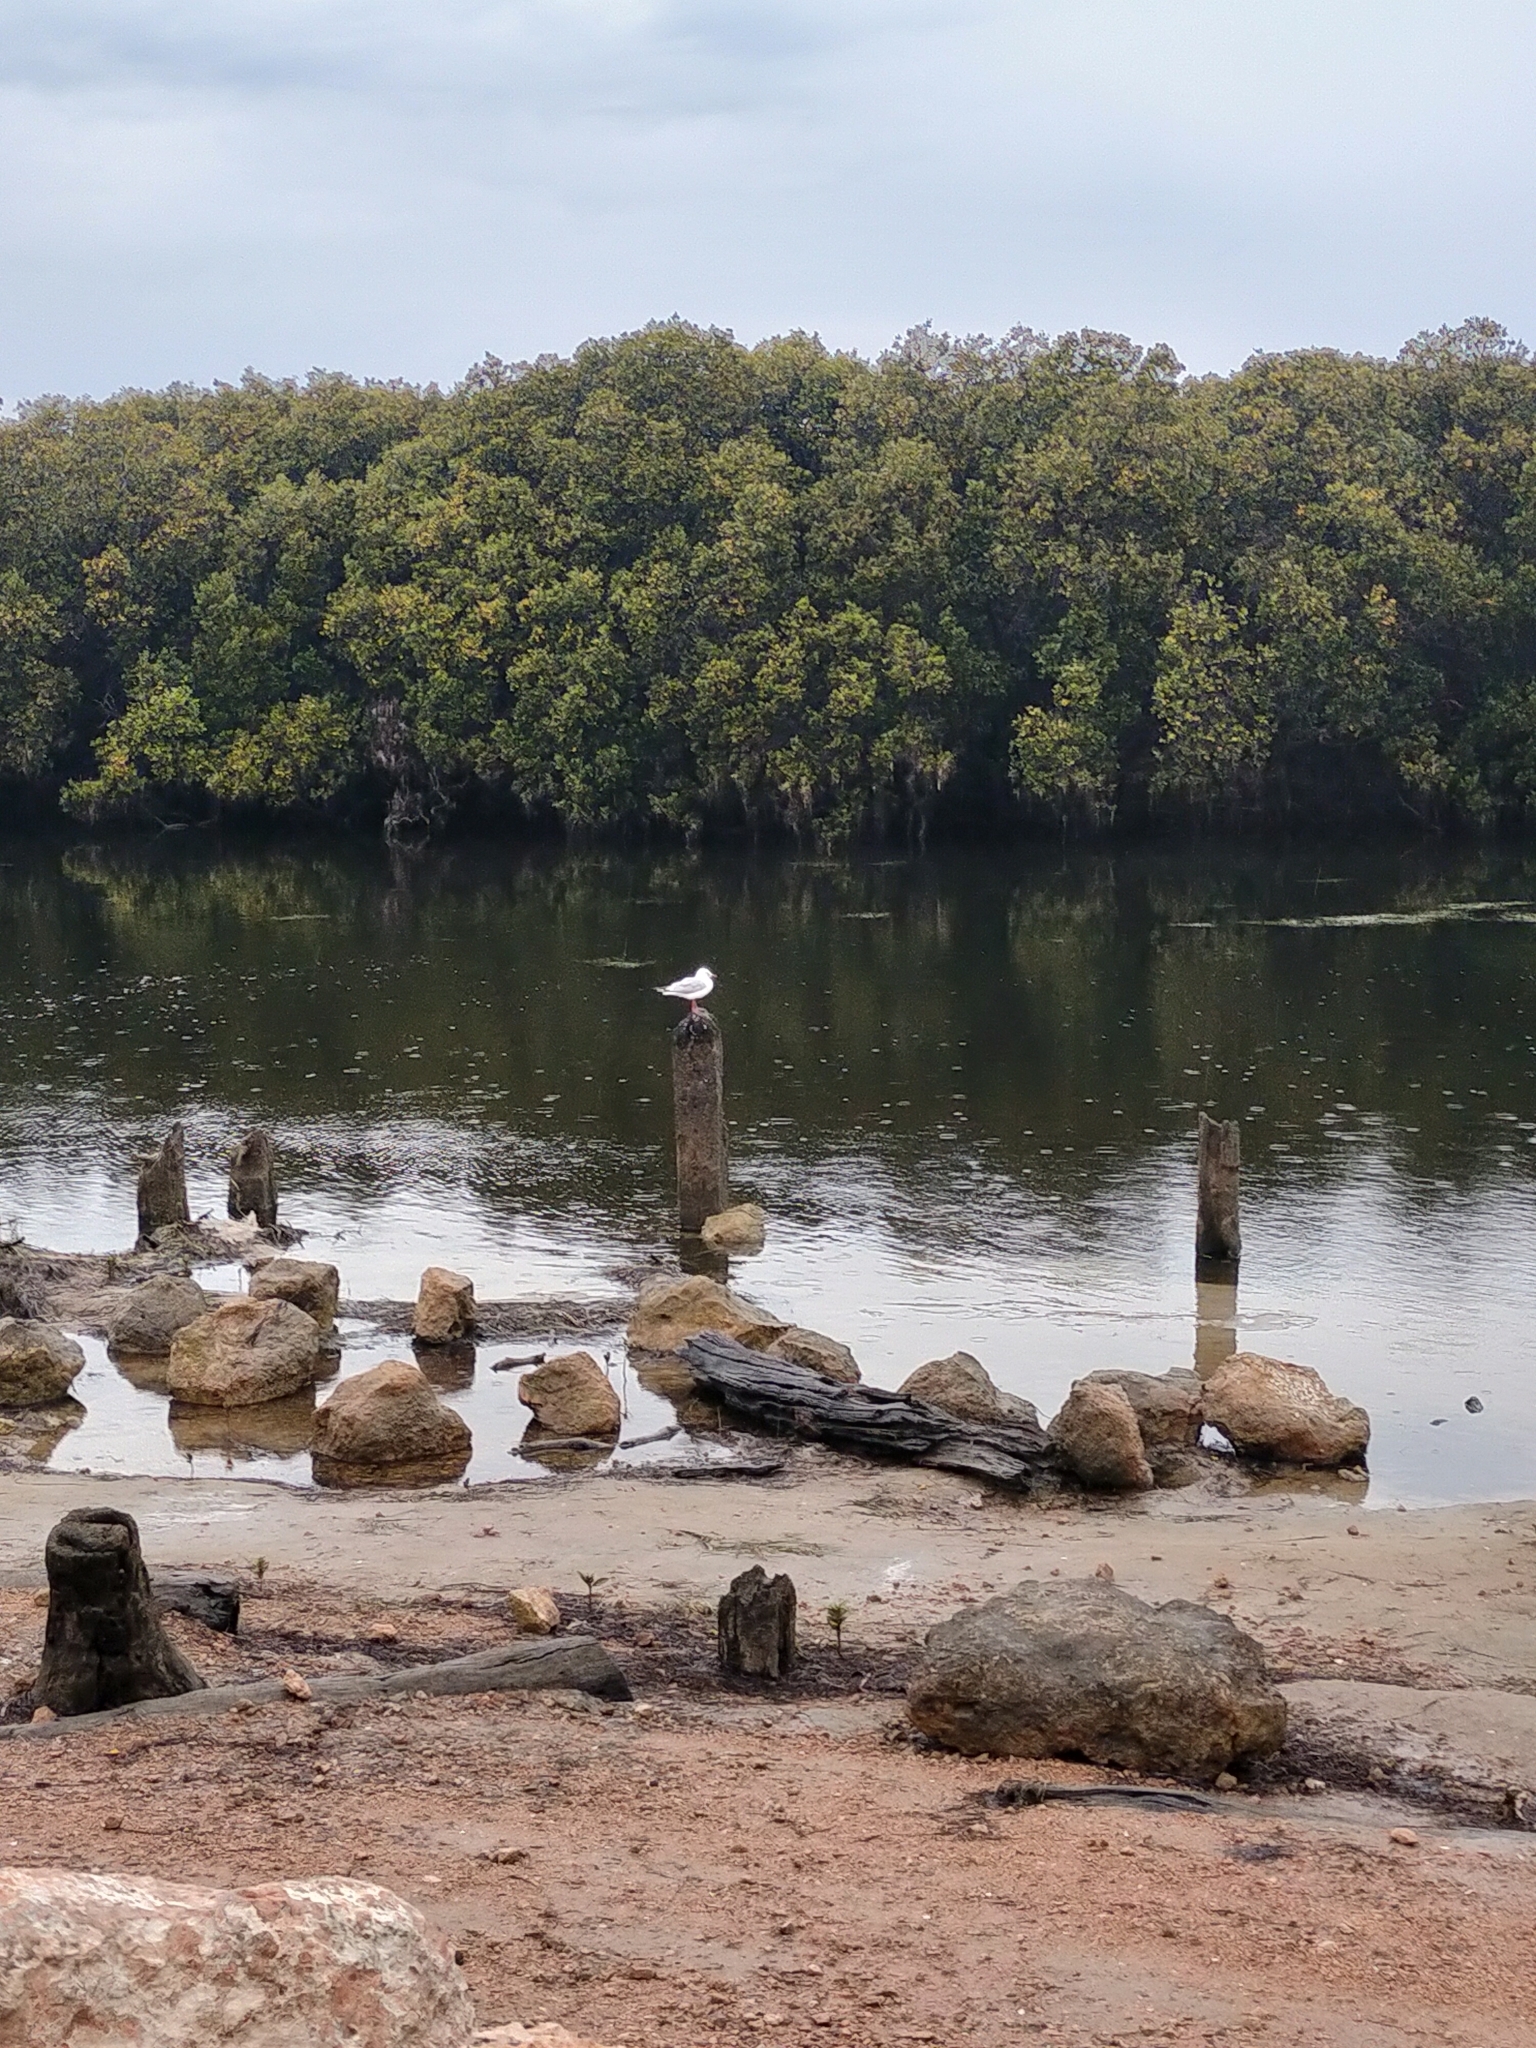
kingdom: Animalia
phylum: Chordata
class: Aves
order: Charadriiformes
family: Laridae
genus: Chroicocephalus
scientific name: Chroicocephalus novaehollandiae
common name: Silver gull
